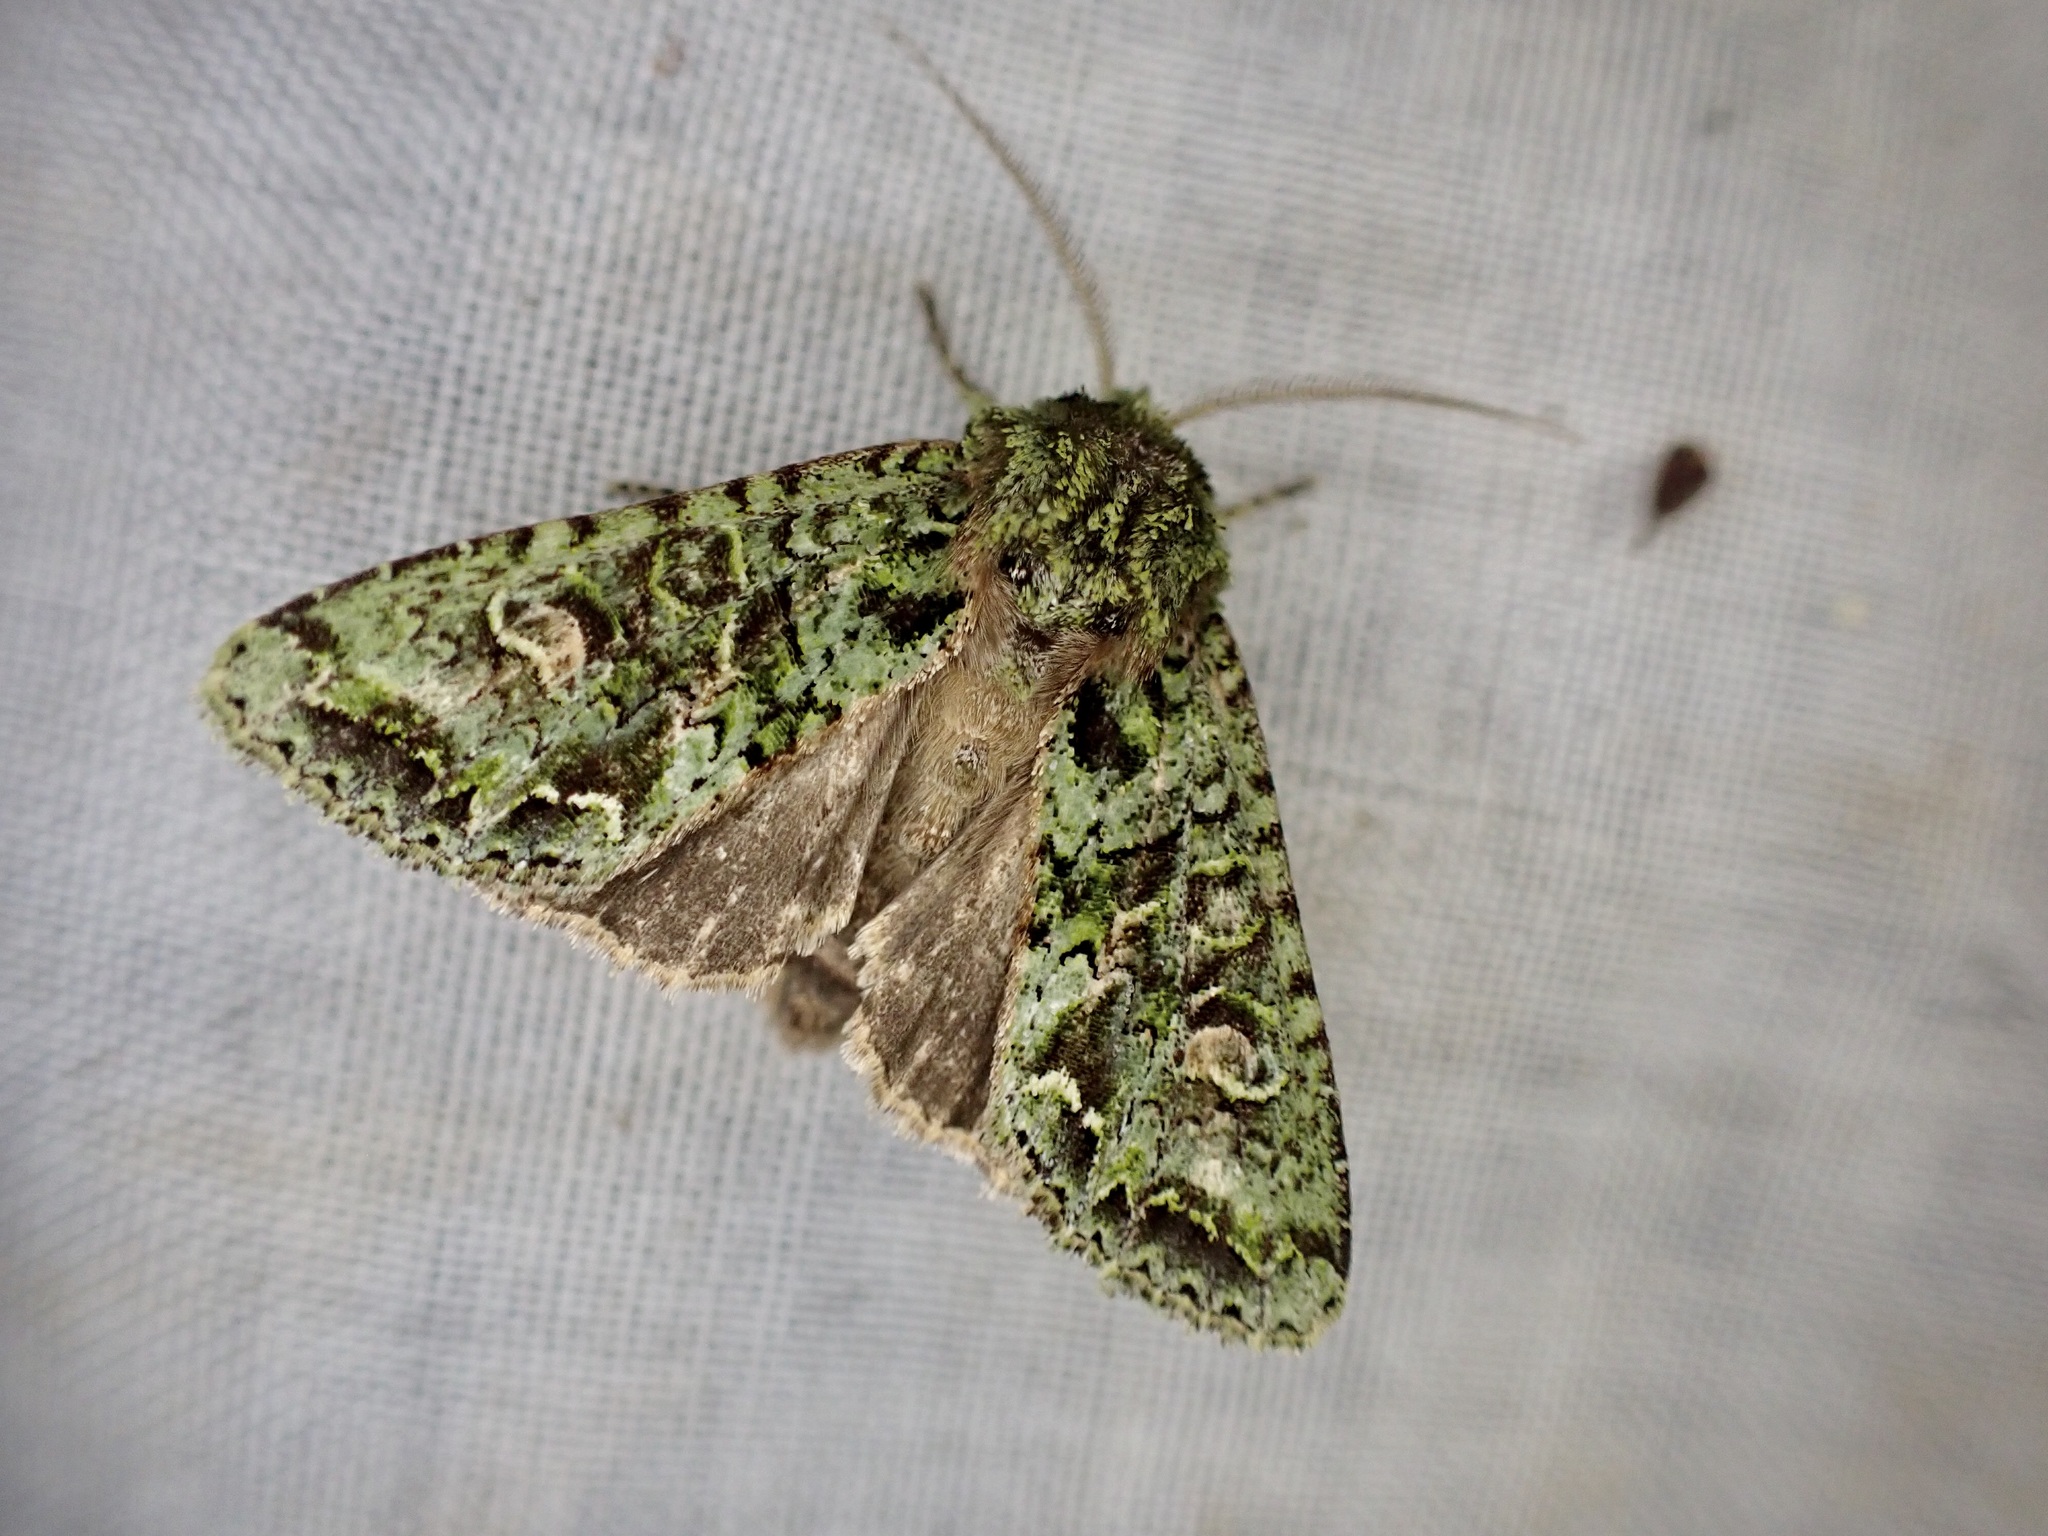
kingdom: Animalia
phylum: Arthropoda
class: Insecta
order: Lepidoptera
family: Noctuidae
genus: Ichneutica
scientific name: Ichneutica
